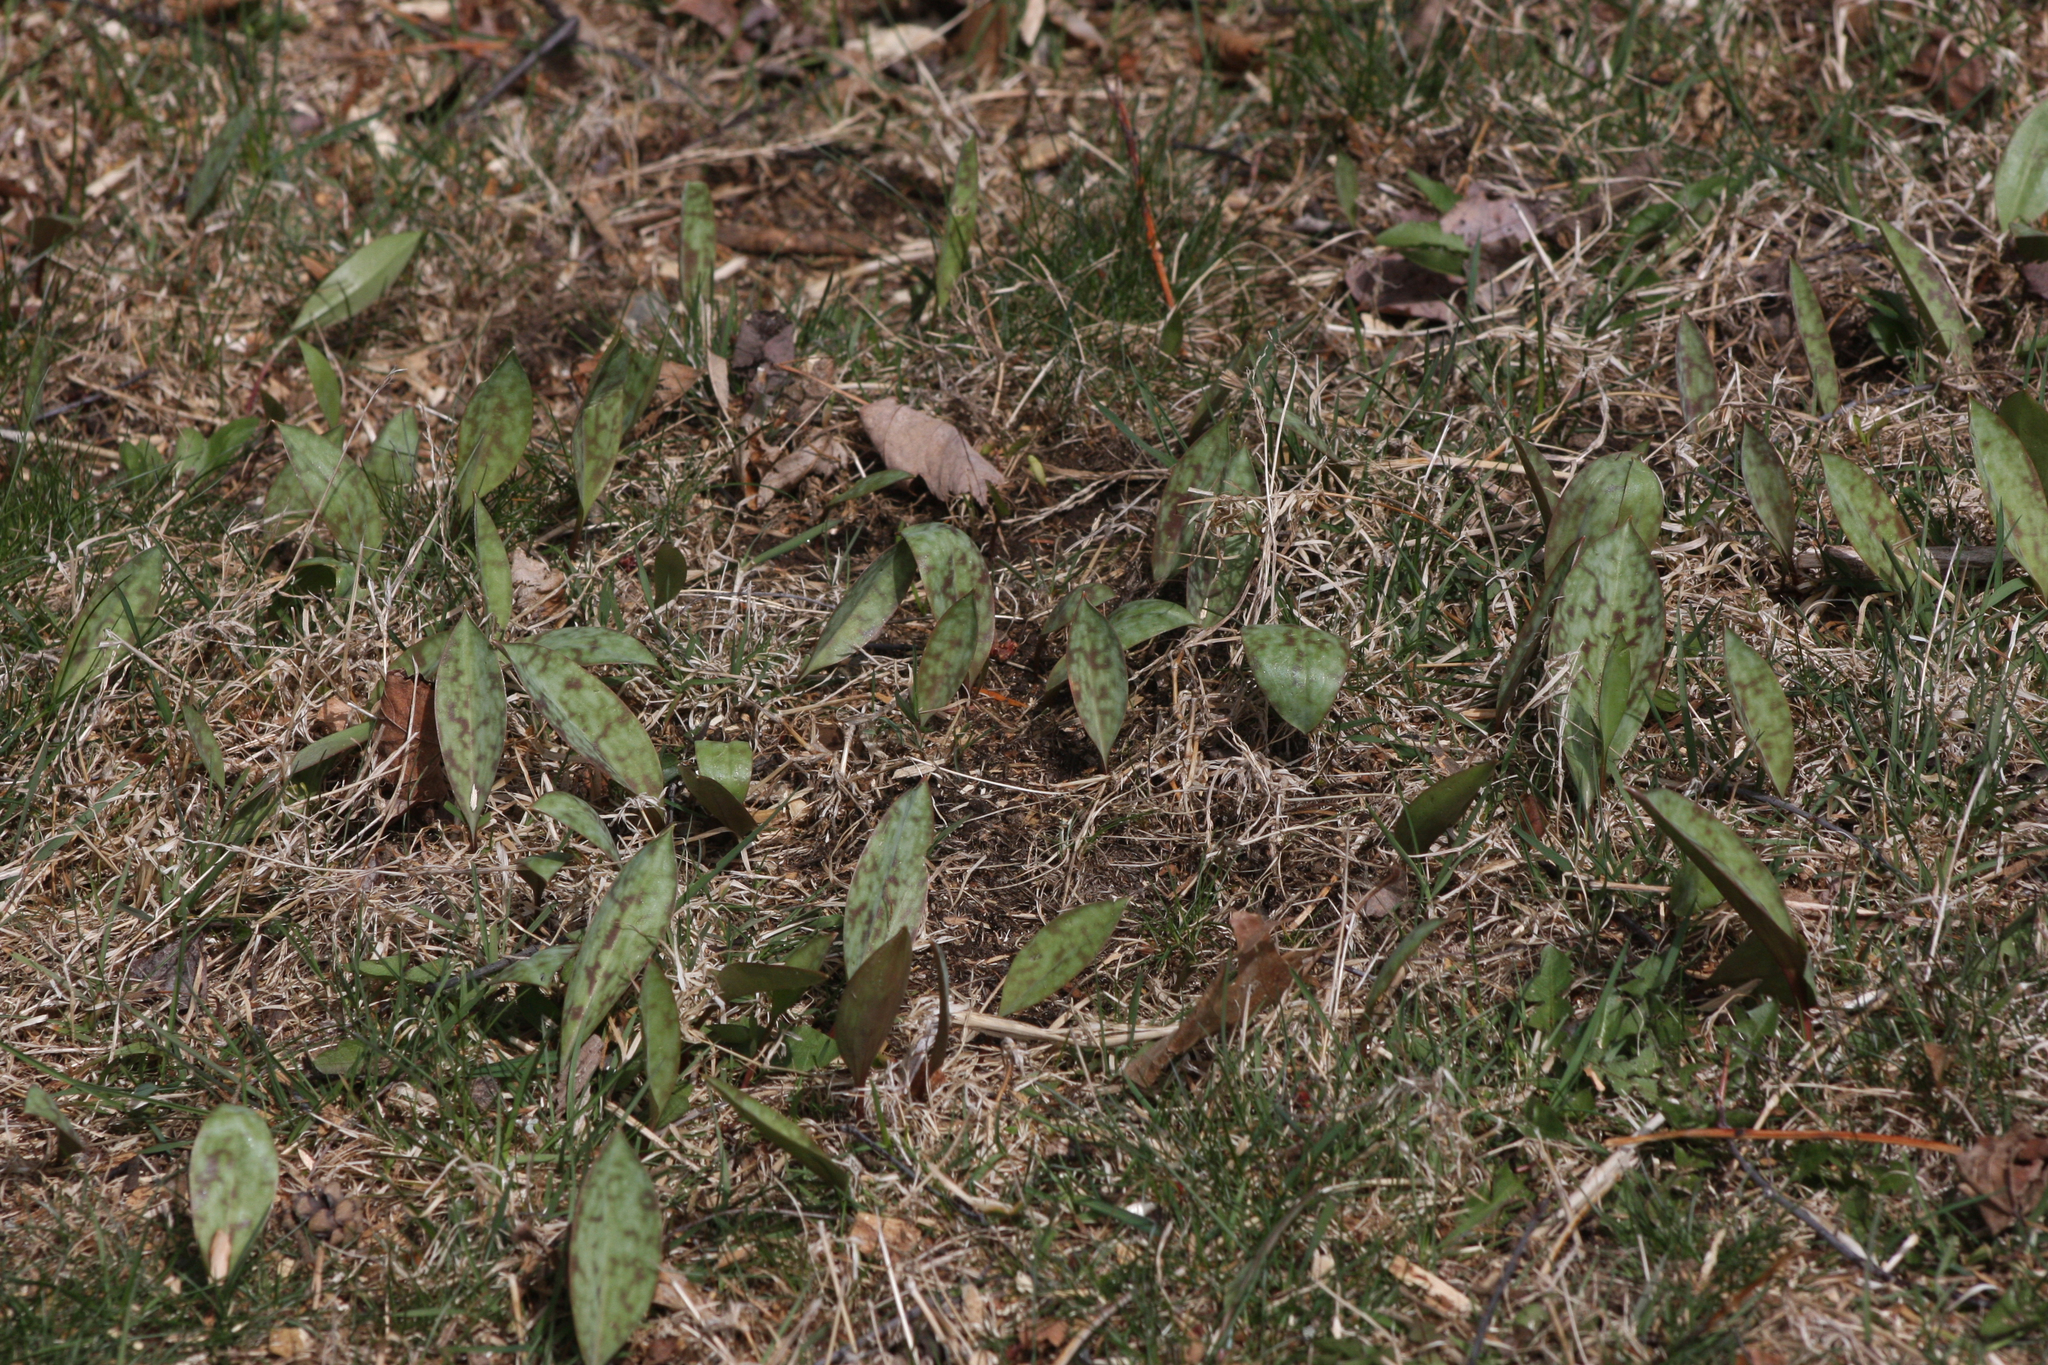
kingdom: Plantae
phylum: Tracheophyta
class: Liliopsida
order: Liliales
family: Liliaceae
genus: Erythronium
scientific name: Erythronium americanum
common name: Yellow adder's-tongue
